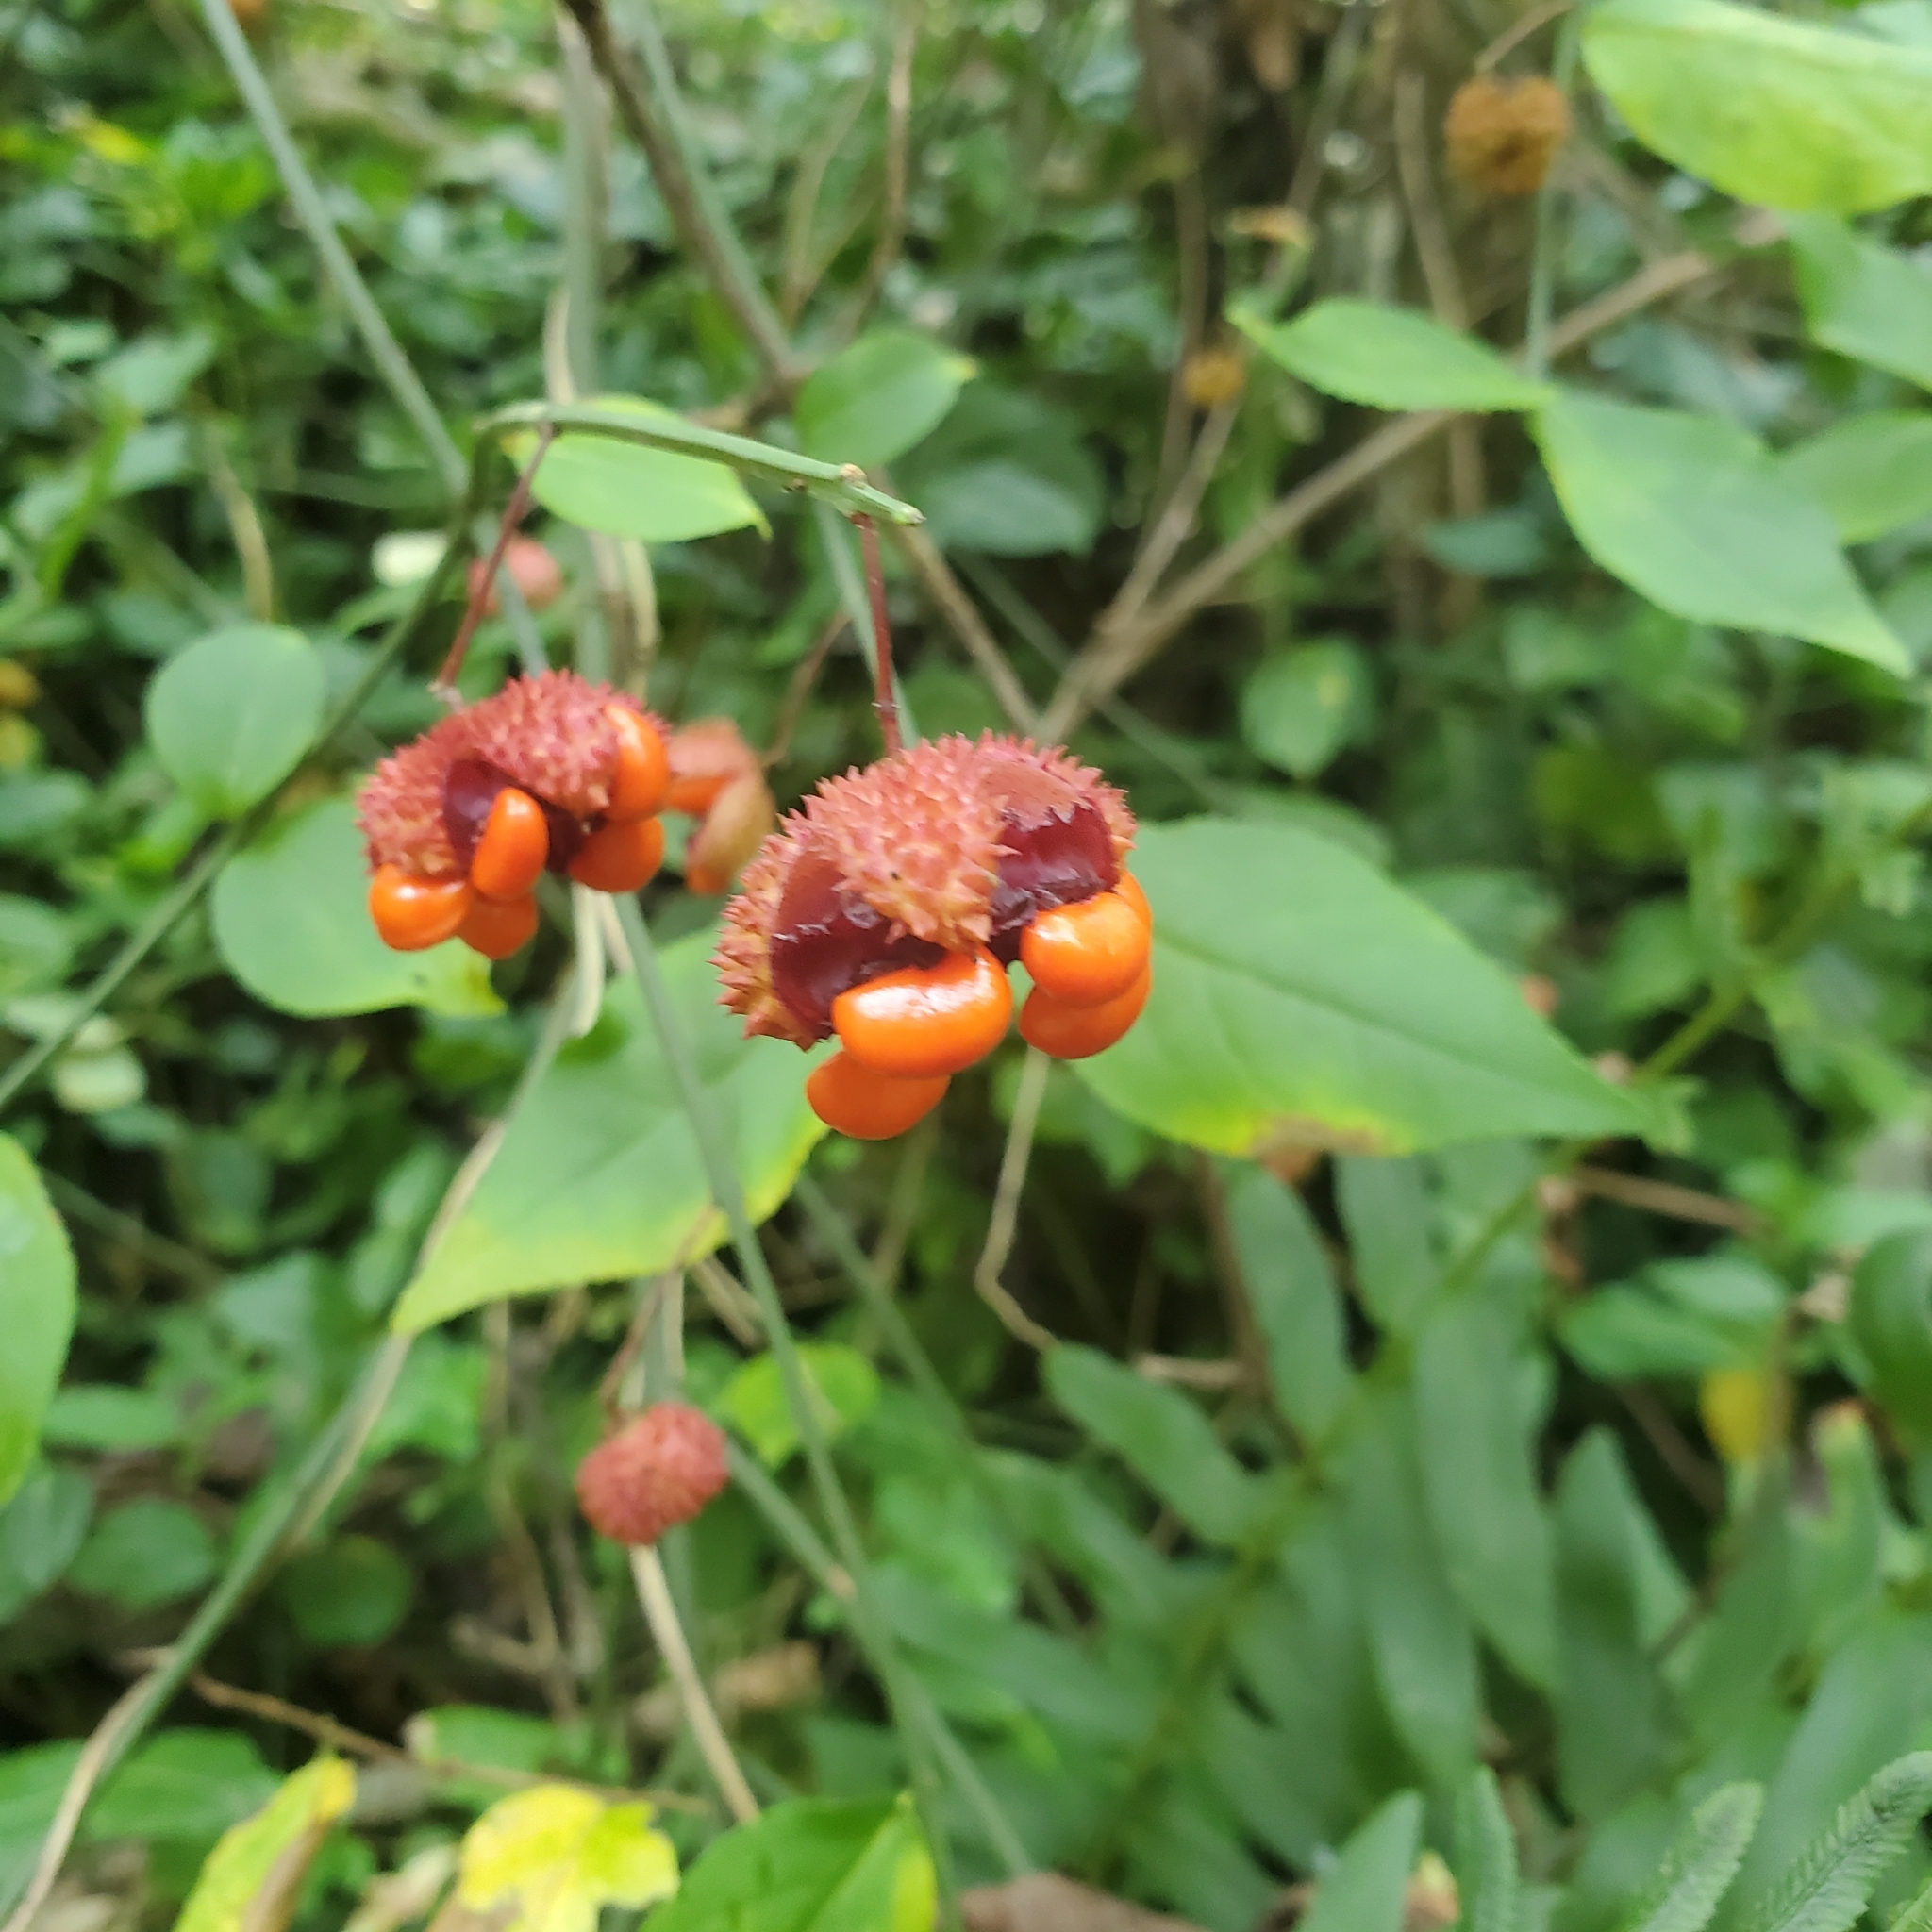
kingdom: Plantae
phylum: Tracheophyta
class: Magnoliopsida
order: Celastrales
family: Celastraceae
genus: Euonymus
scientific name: Euonymus americanus
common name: Bursting-heart
